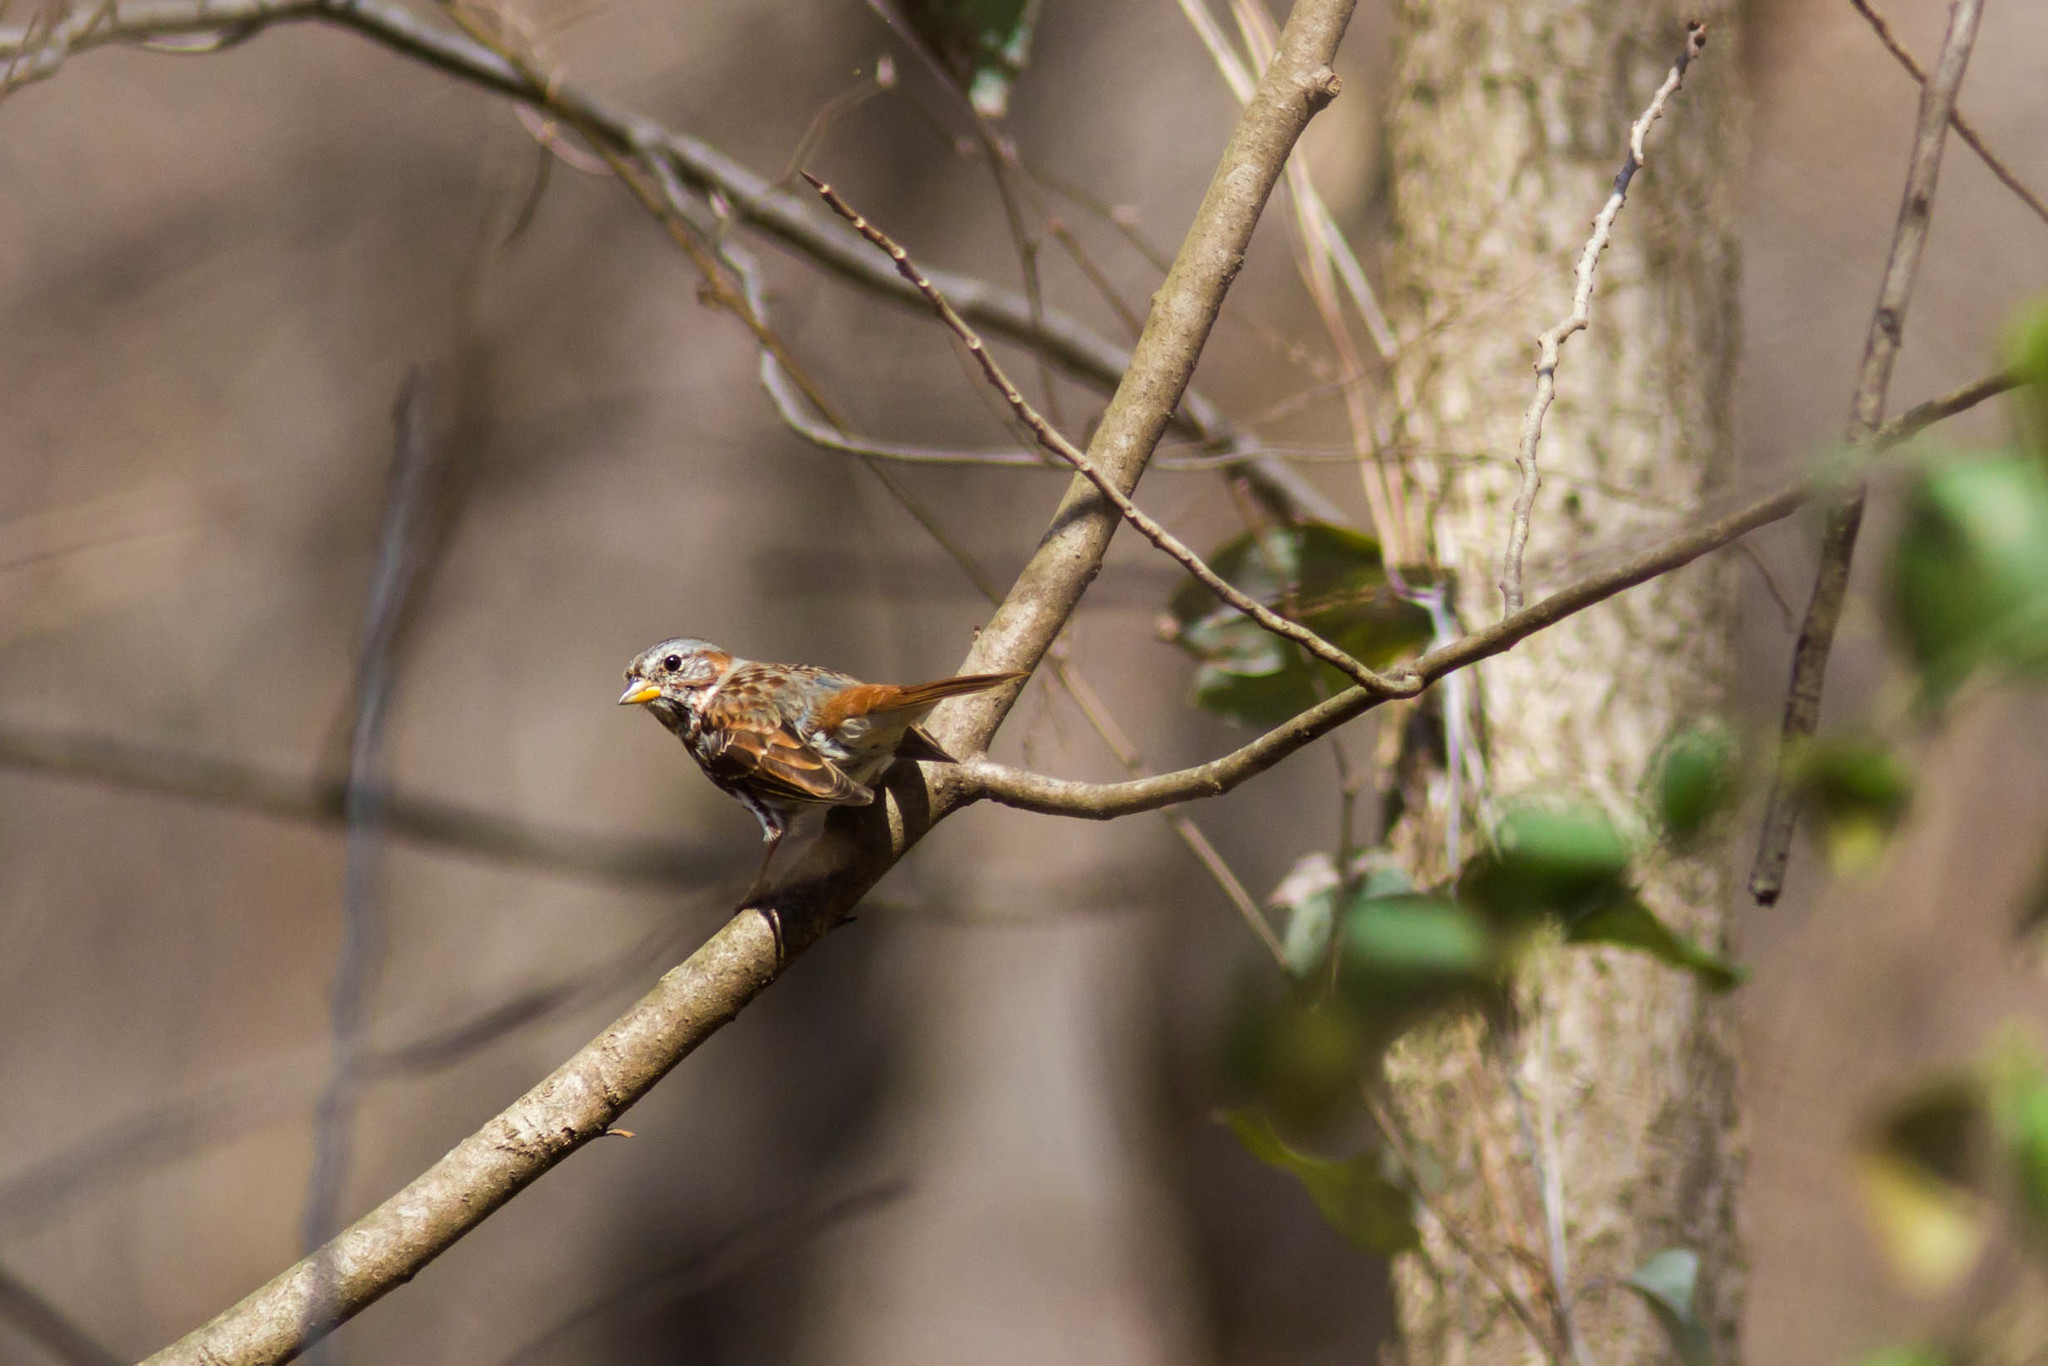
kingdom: Animalia
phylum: Chordata
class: Aves
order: Passeriformes
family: Passerellidae
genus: Passerella
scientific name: Passerella iliaca
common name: Fox sparrow
